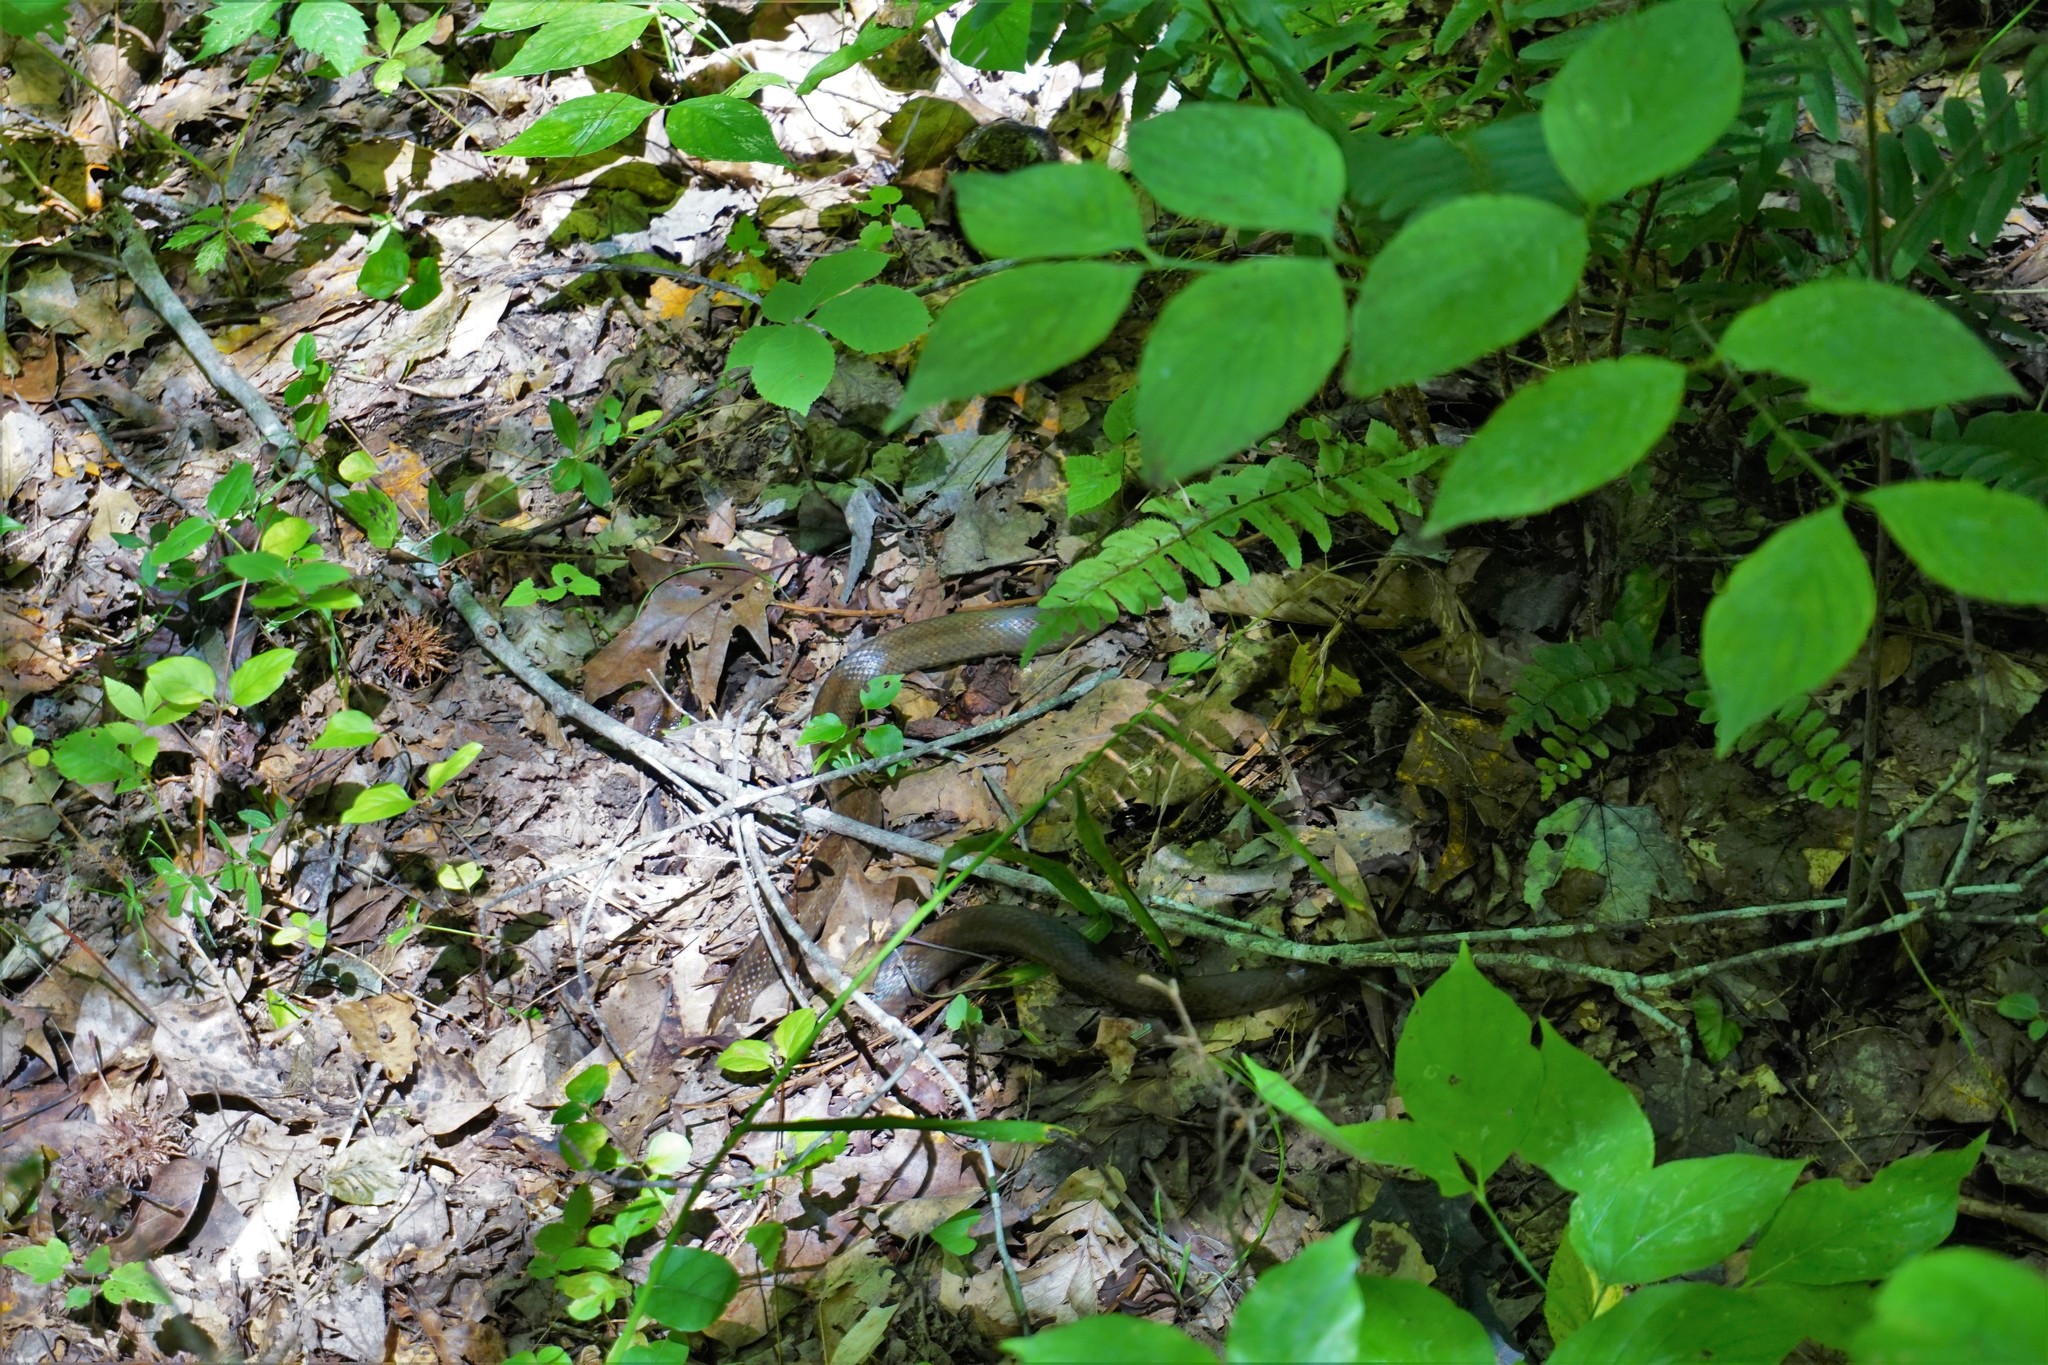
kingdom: Animalia
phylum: Chordata
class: Squamata
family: Colubridae
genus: Lampropeltis
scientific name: Lampropeltis rhombomaculata
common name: Mole kingsnake
